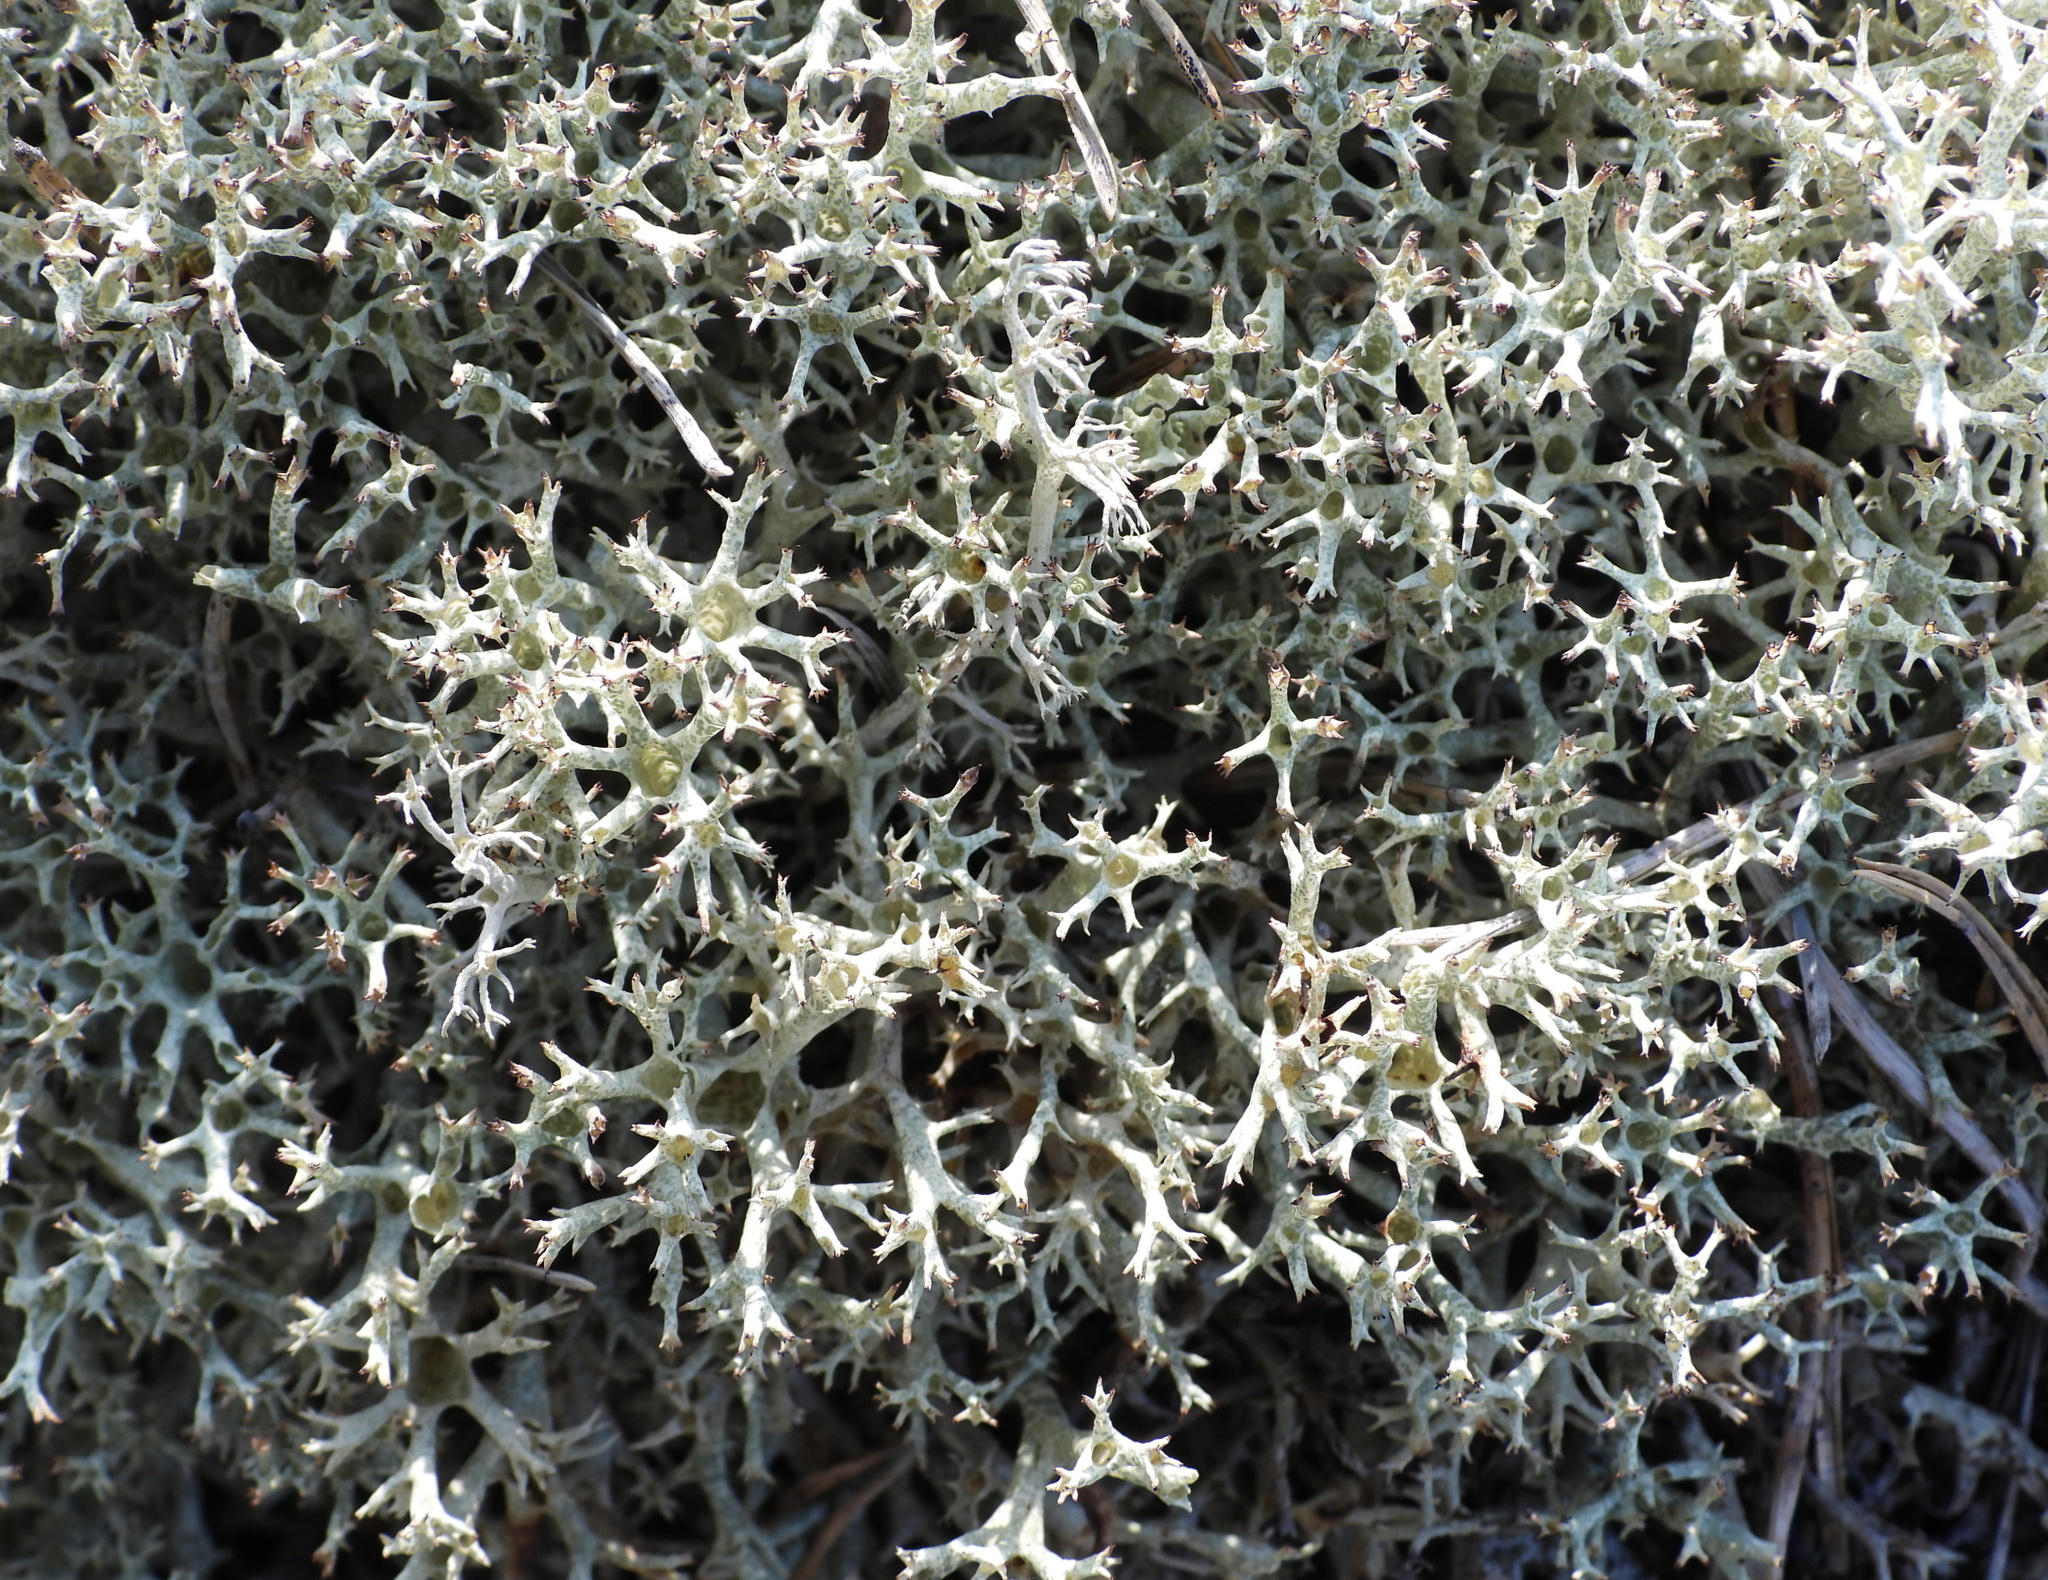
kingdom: Fungi
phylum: Ascomycota
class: Lecanoromycetes
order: Lecanorales
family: Cladoniaceae
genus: Cladonia
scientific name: Cladonia uncialis
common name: Thorn lichen
